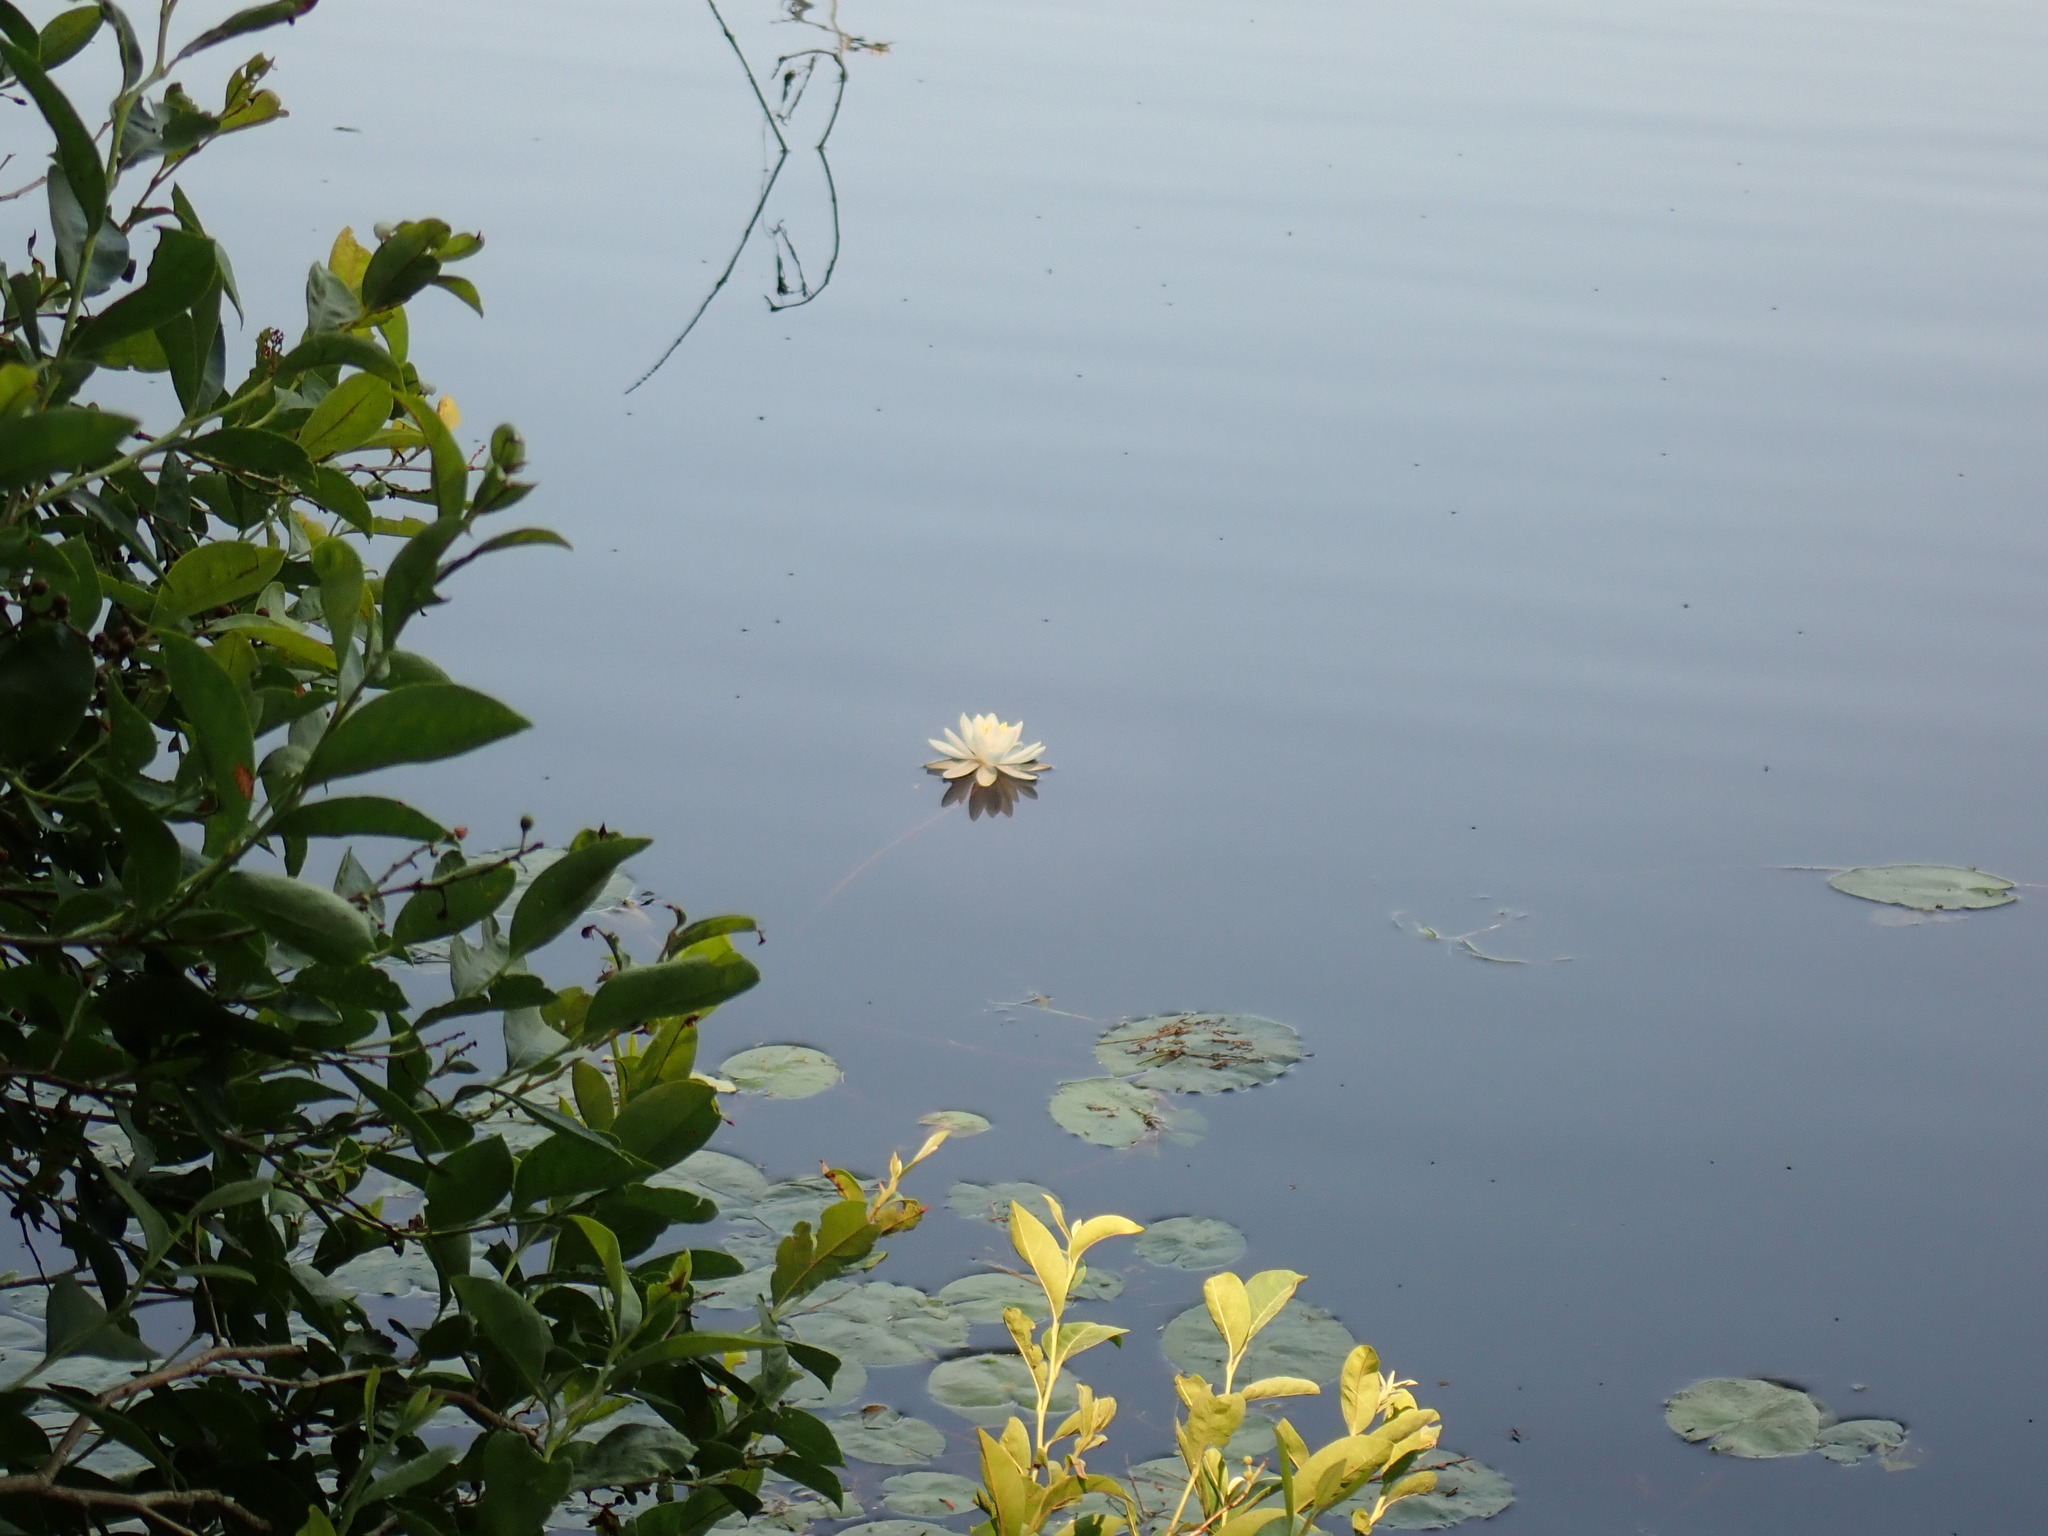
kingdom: Plantae
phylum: Tracheophyta
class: Magnoliopsida
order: Nymphaeales
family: Nymphaeaceae
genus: Nymphaea
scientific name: Nymphaea odorata
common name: Fragrant water-lily
